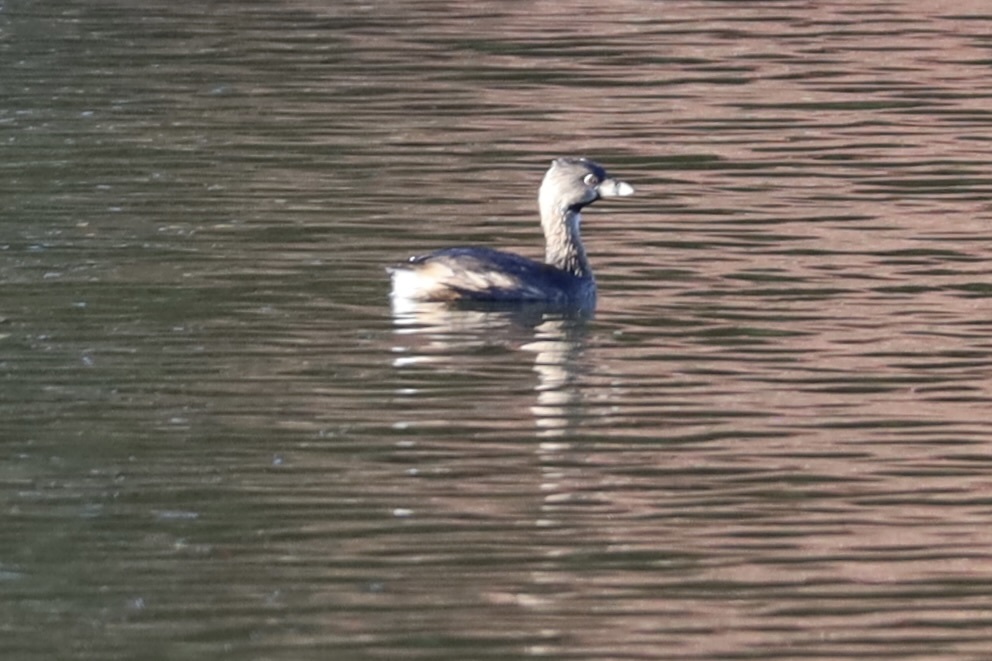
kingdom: Animalia
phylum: Chordata
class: Aves
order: Podicipediformes
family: Podicipedidae
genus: Podilymbus
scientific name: Podilymbus podiceps
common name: Pied-billed grebe
